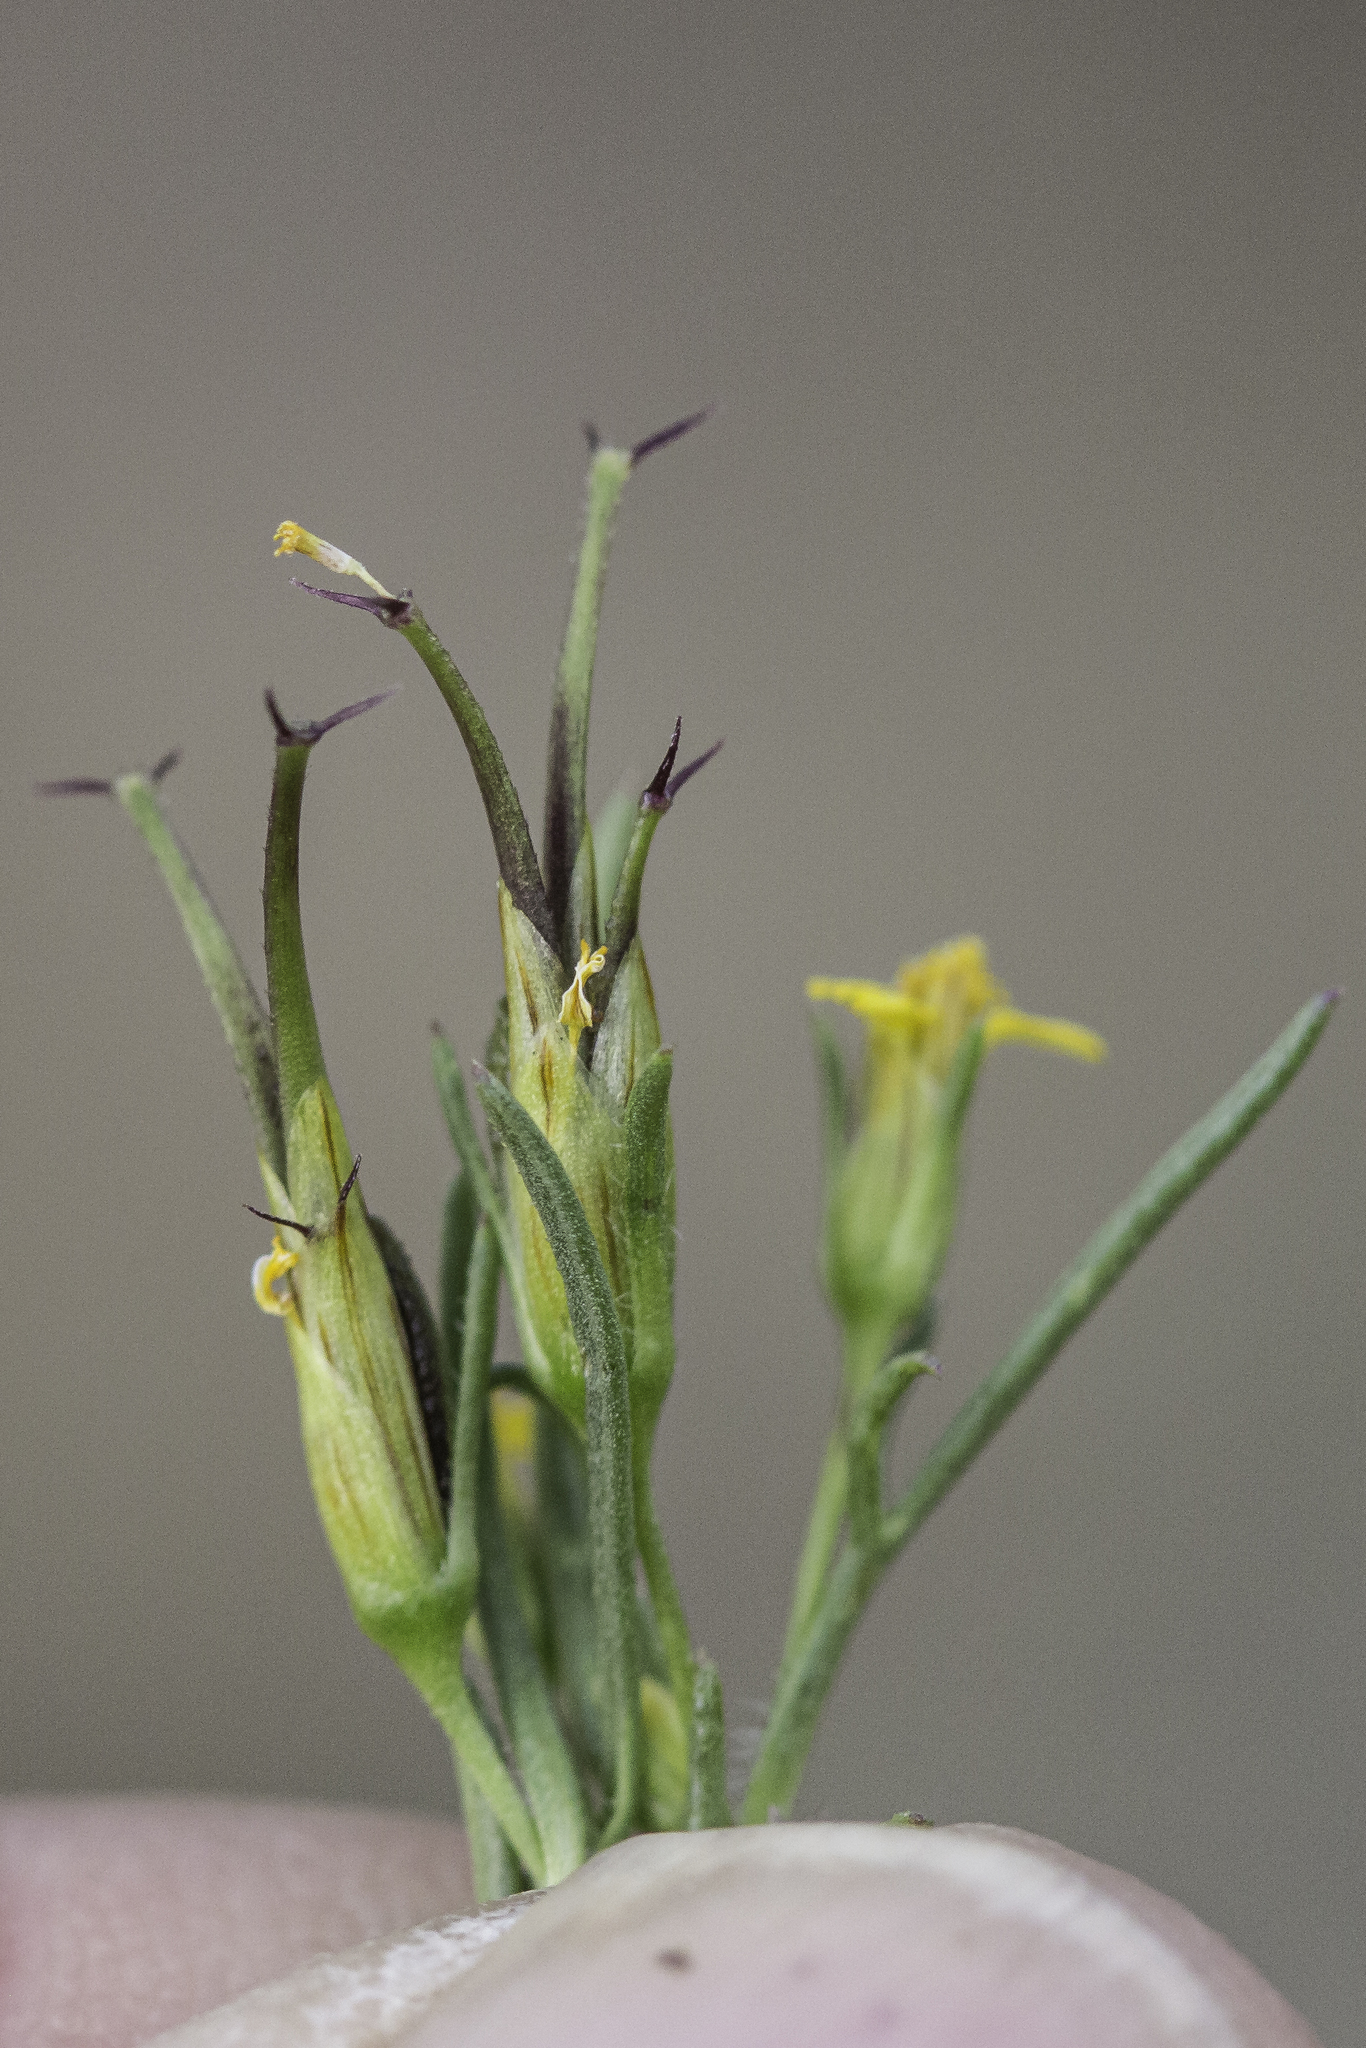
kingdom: Plantae
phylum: Tracheophyta
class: Magnoliopsida
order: Asterales
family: Asteraceae
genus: Heterosperma
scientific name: Heterosperma pinnatum
